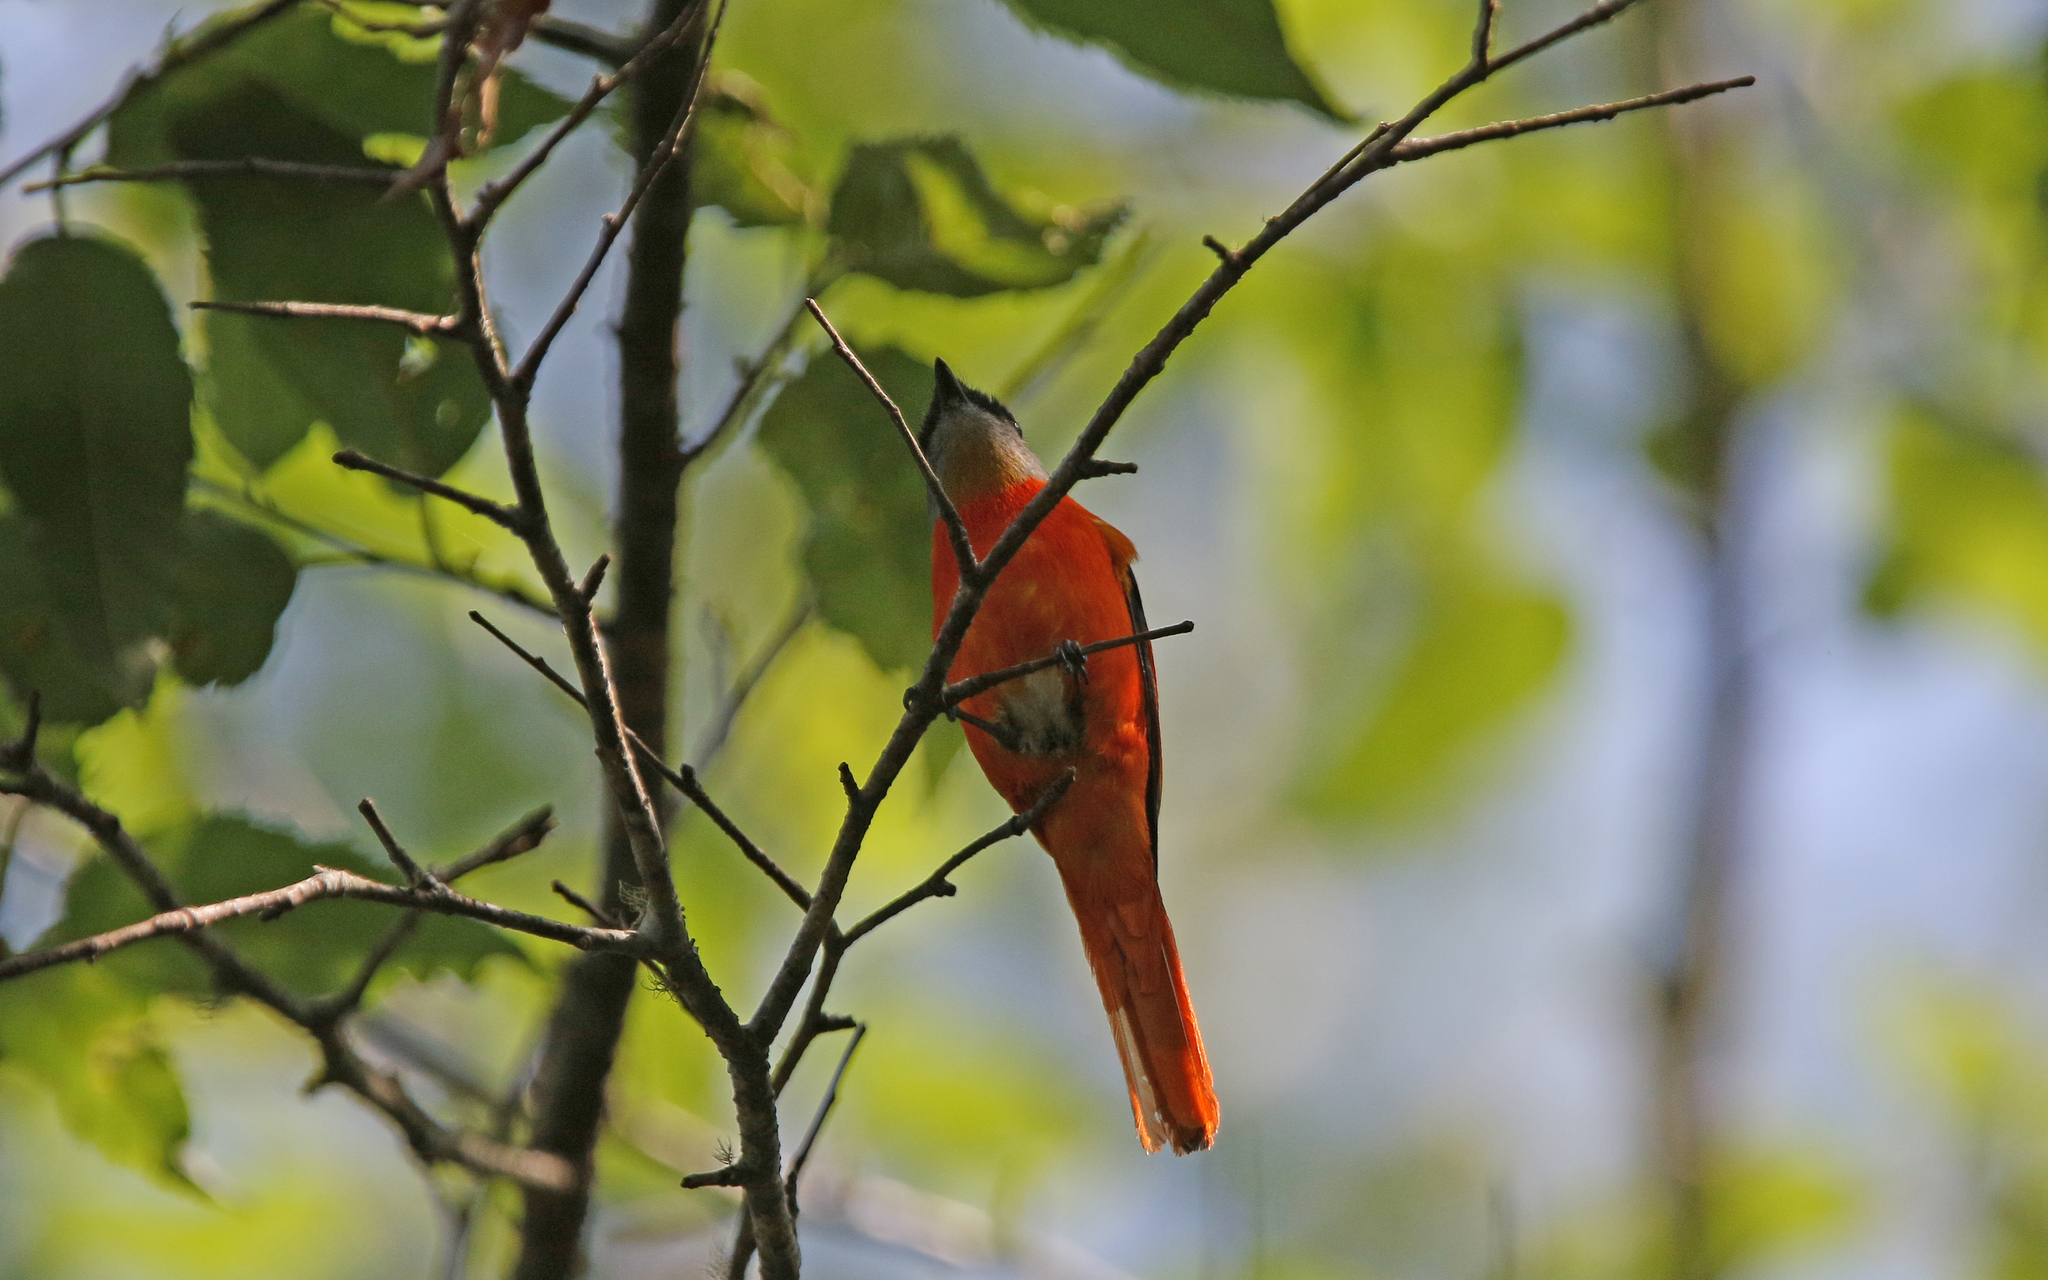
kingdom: Animalia
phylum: Chordata
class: Aves
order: Passeriformes
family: Campephagidae
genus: Pericrocotus
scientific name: Pericrocotus solaris
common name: Grey-chinned minivet
